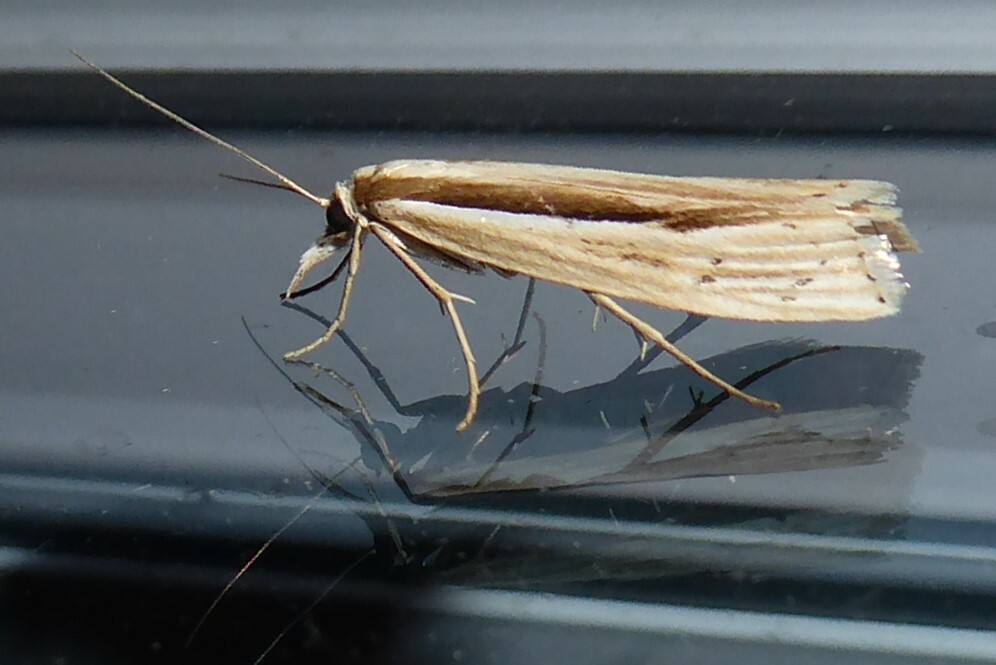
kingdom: Animalia
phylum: Arthropoda
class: Insecta
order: Lepidoptera
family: Crambidae
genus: Orocrambus
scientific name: Orocrambus ramosellus
